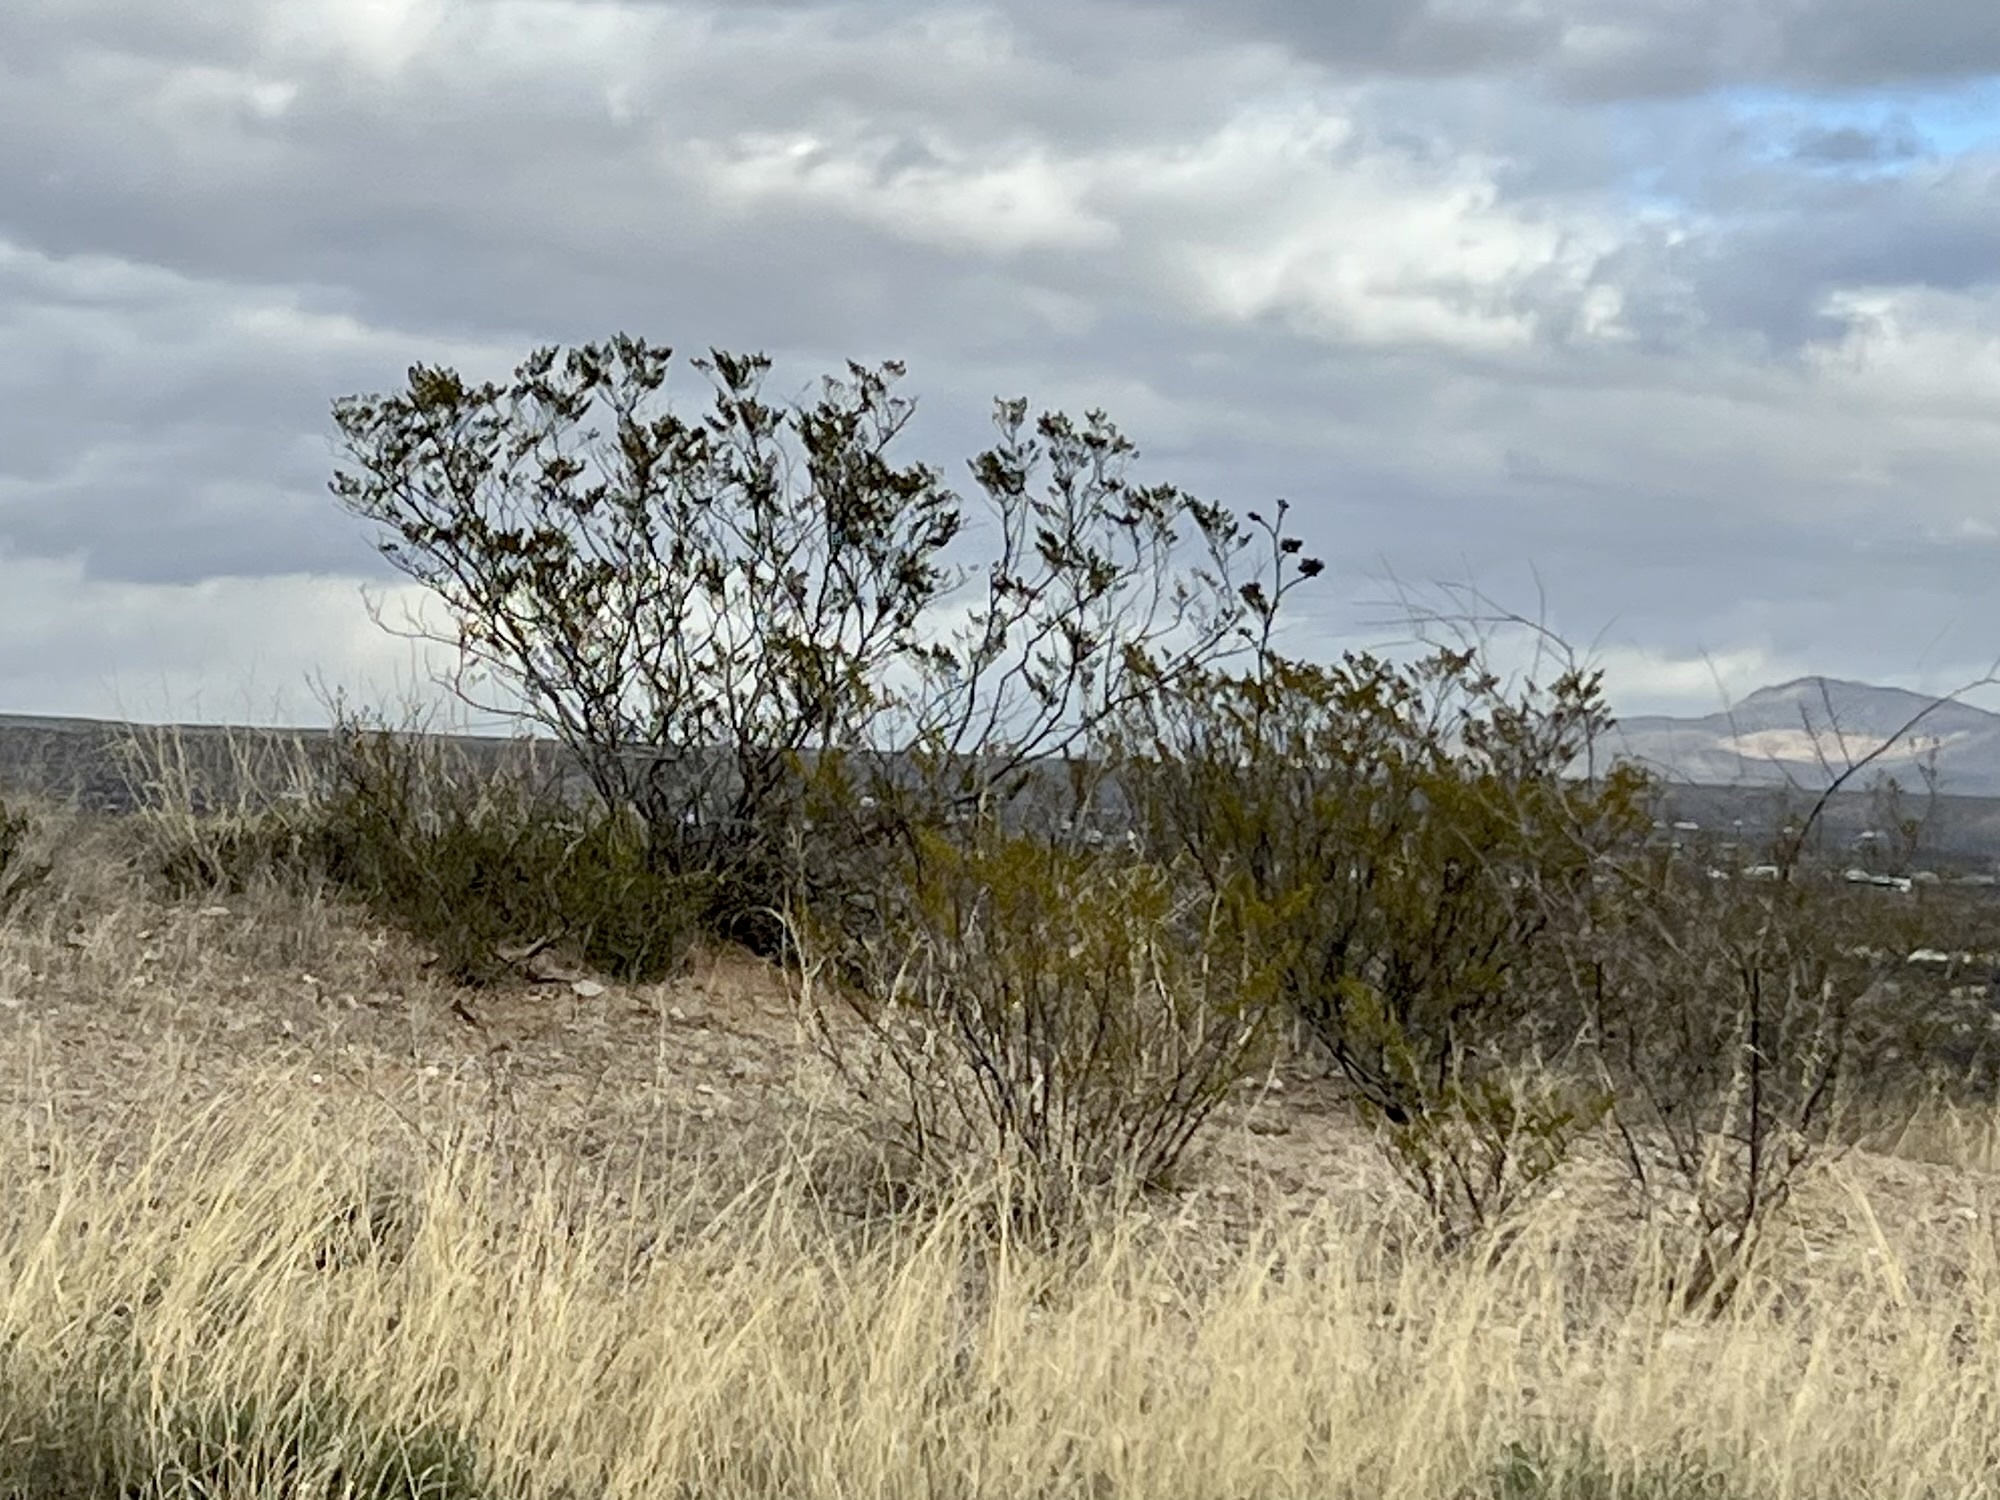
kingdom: Plantae
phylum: Tracheophyta
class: Magnoliopsida
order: Zygophyllales
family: Zygophyllaceae
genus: Larrea
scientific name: Larrea tridentata
